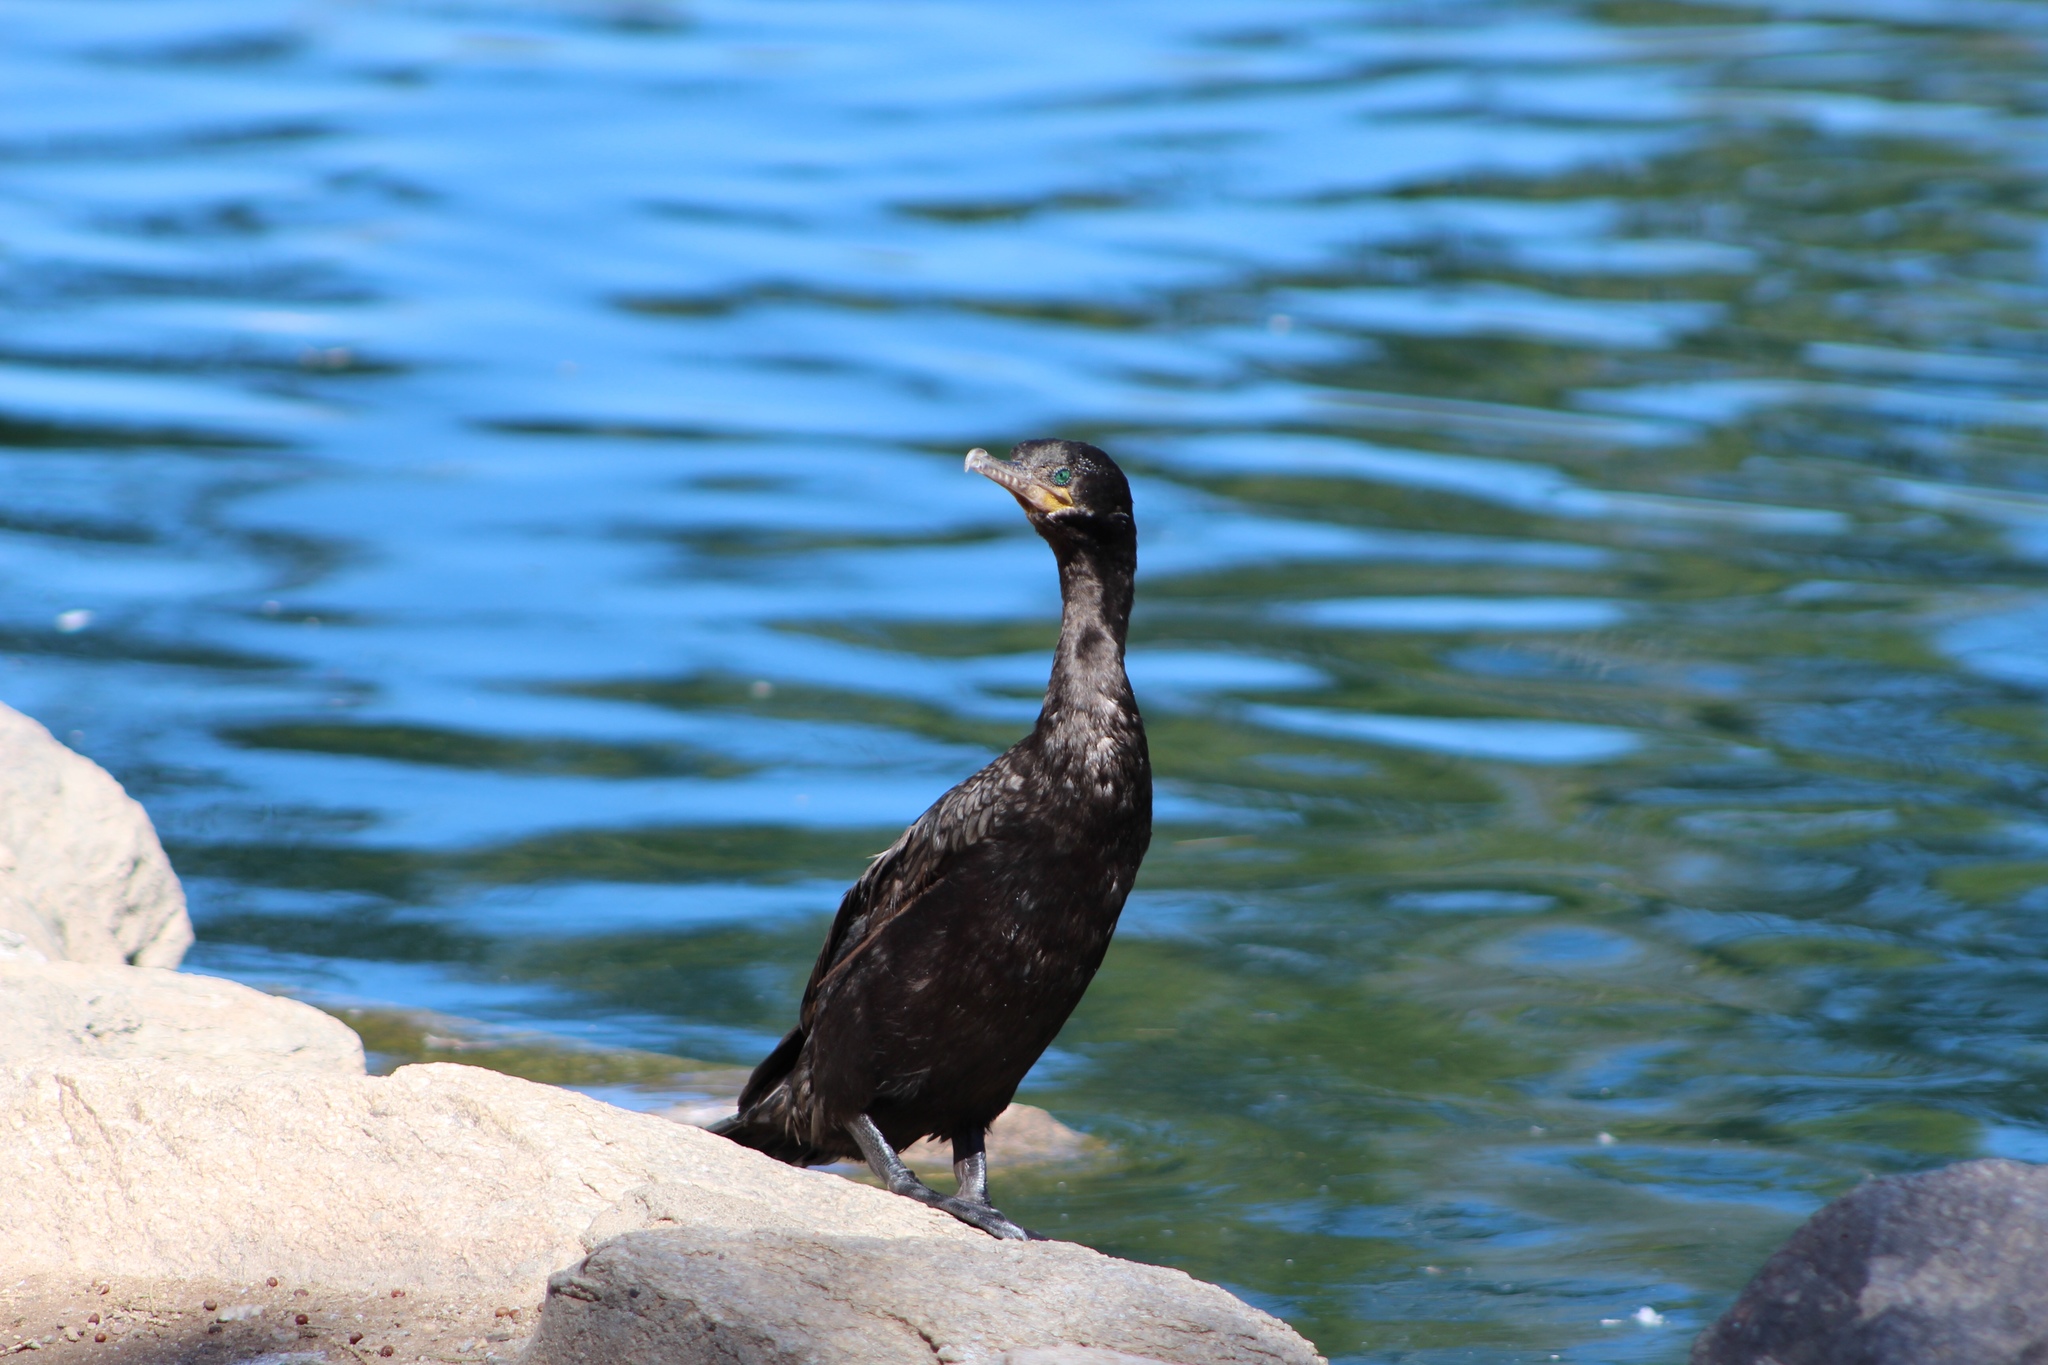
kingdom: Animalia
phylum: Chordata
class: Aves
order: Suliformes
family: Phalacrocoracidae
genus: Phalacrocorax
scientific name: Phalacrocorax brasilianus
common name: Neotropic cormorant
